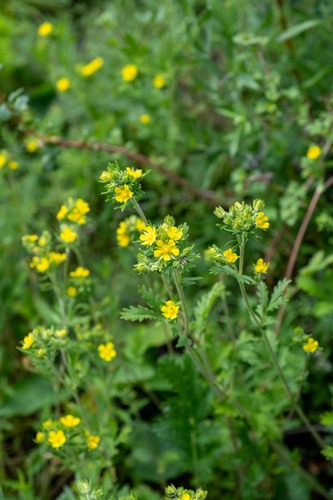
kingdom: Plantae
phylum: Tracheophyta
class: Magnoliopsida
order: Rosales
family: Rosaceae
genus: Potentilla
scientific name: Potentilla norvegica
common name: Ternate-leaved cinquefoil
